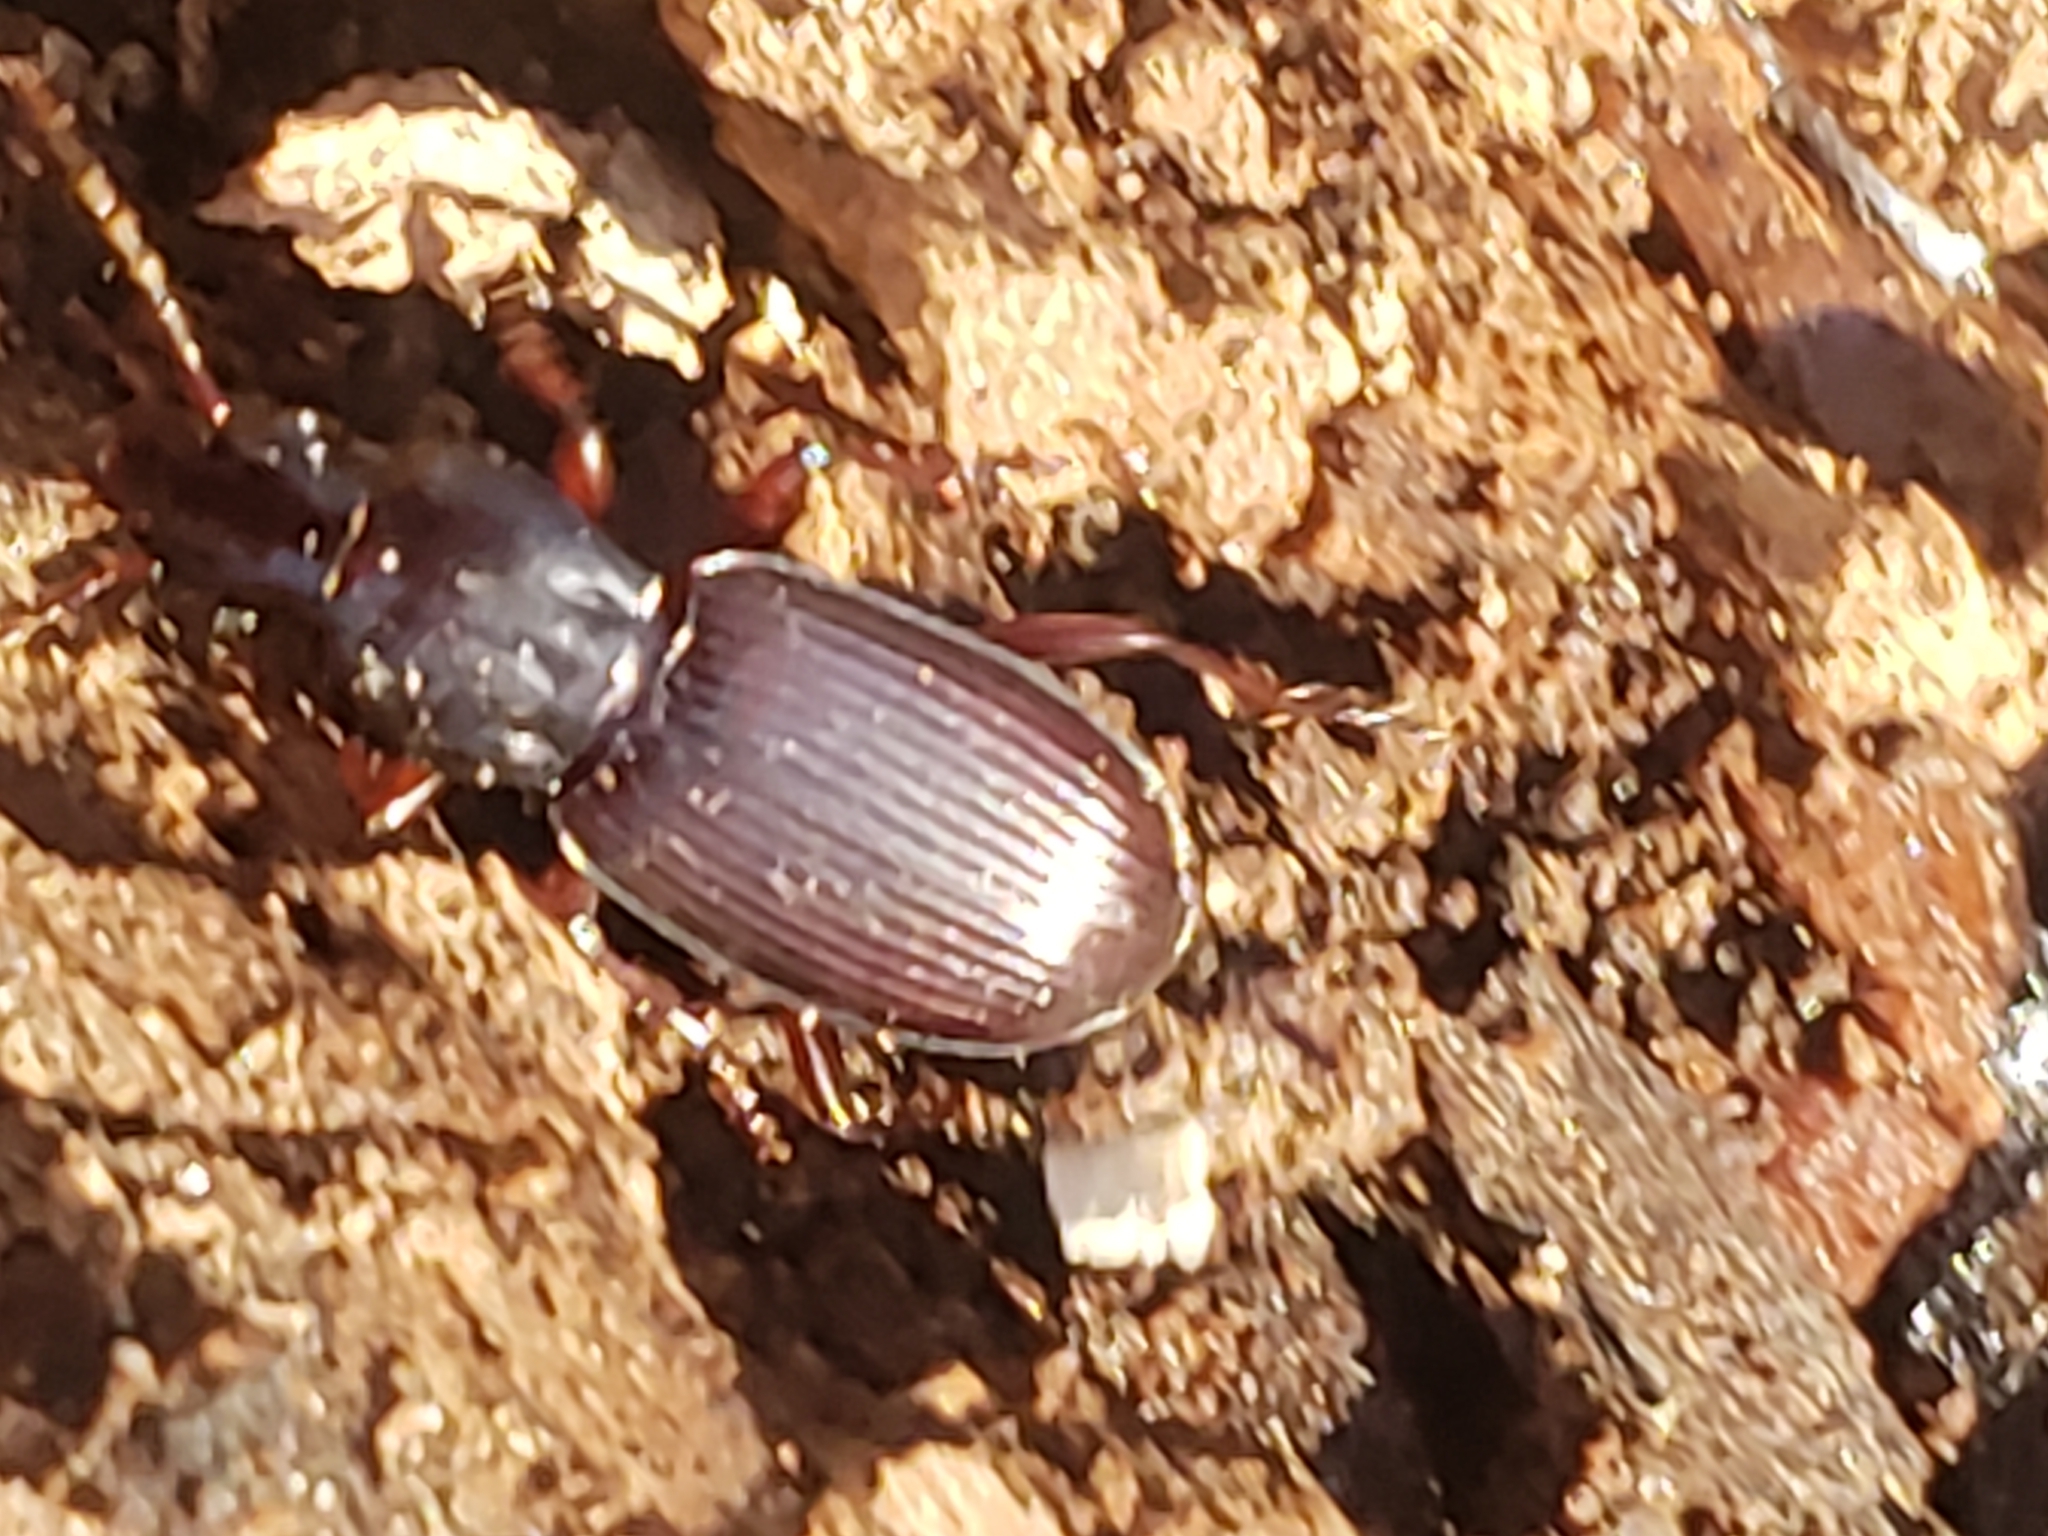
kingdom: Animalia
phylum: Arthropoda
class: Insecta
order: Coleoptera
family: Carabidae
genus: Gastrellarius
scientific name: Gastrellarius honestus
